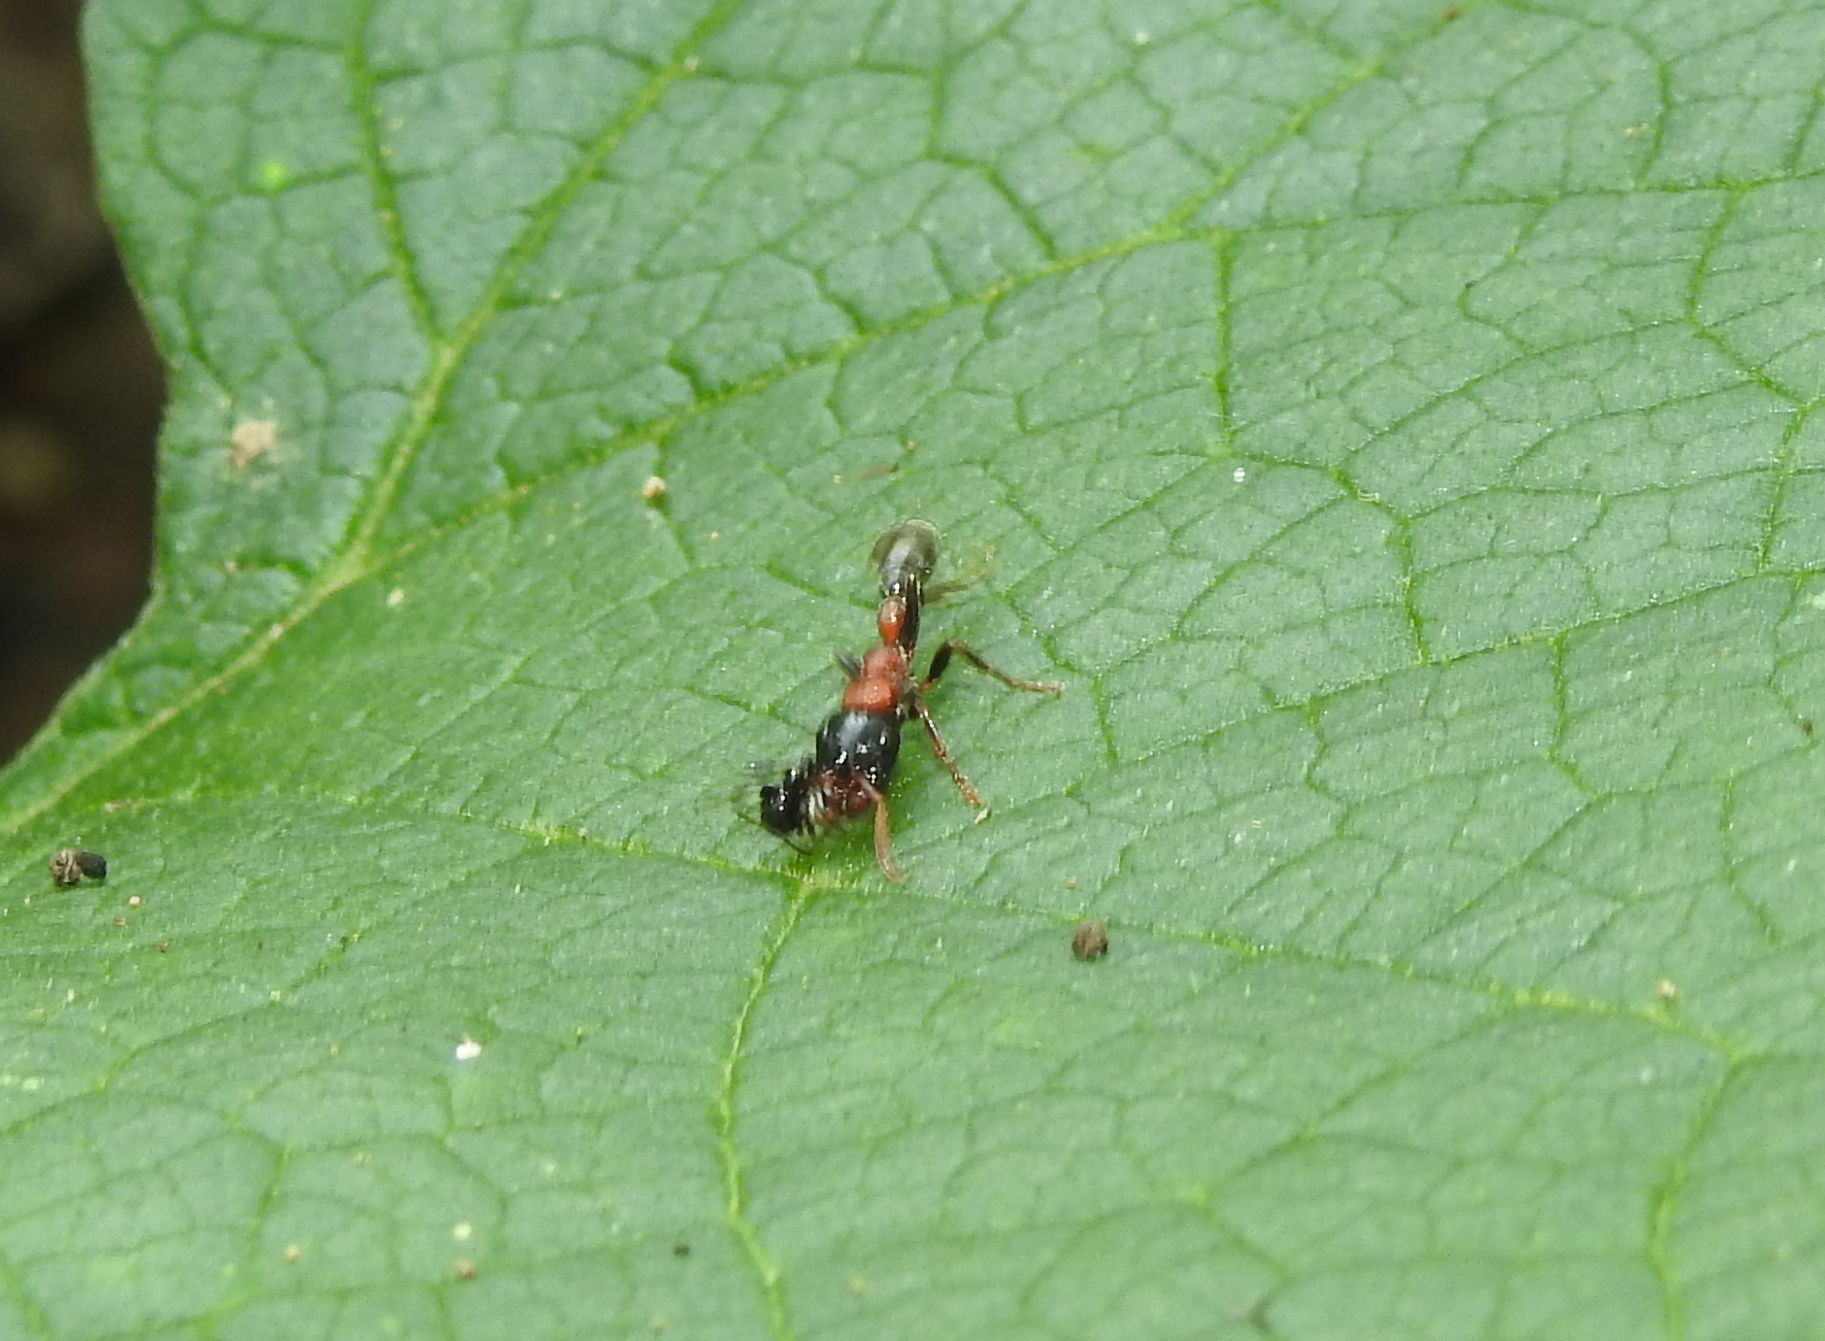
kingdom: Animalia
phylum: Arthropoda
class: Insecta
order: Hymenoptera
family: Formicidae
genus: Tetraponera
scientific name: Tetraponera rufonigra
